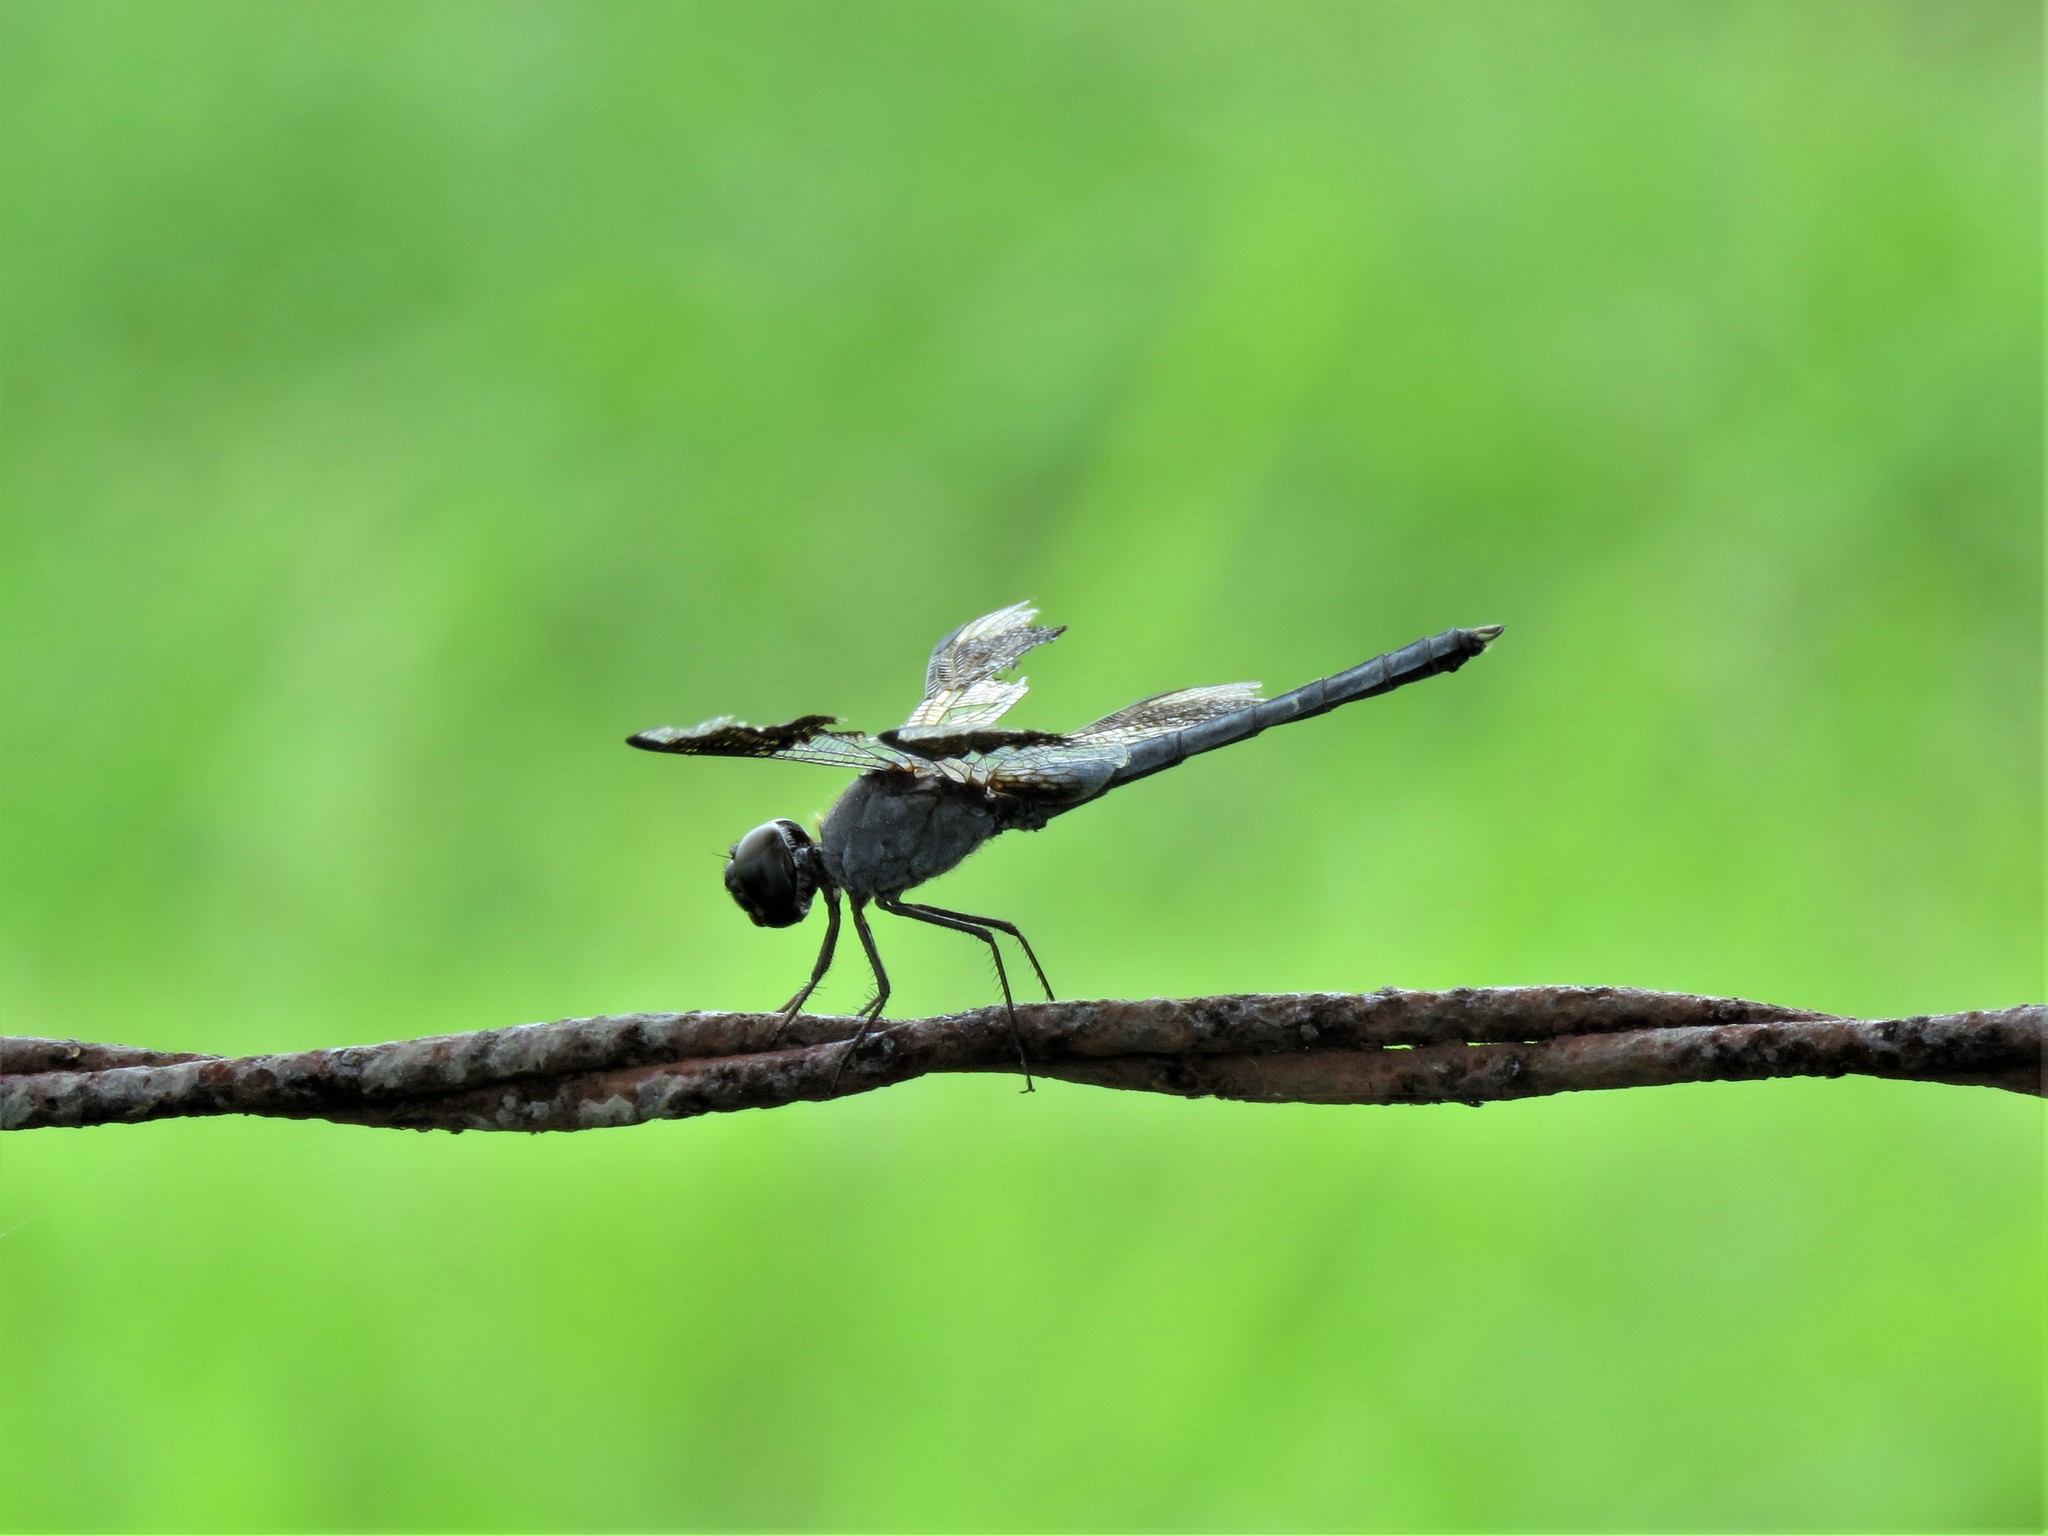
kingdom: Animalia
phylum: Arthropoda
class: Insecta
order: Odonata
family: Libellulidae
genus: Erythrodiplax
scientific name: Erythrodiplax umbrata
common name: Band-winged dragonlet
